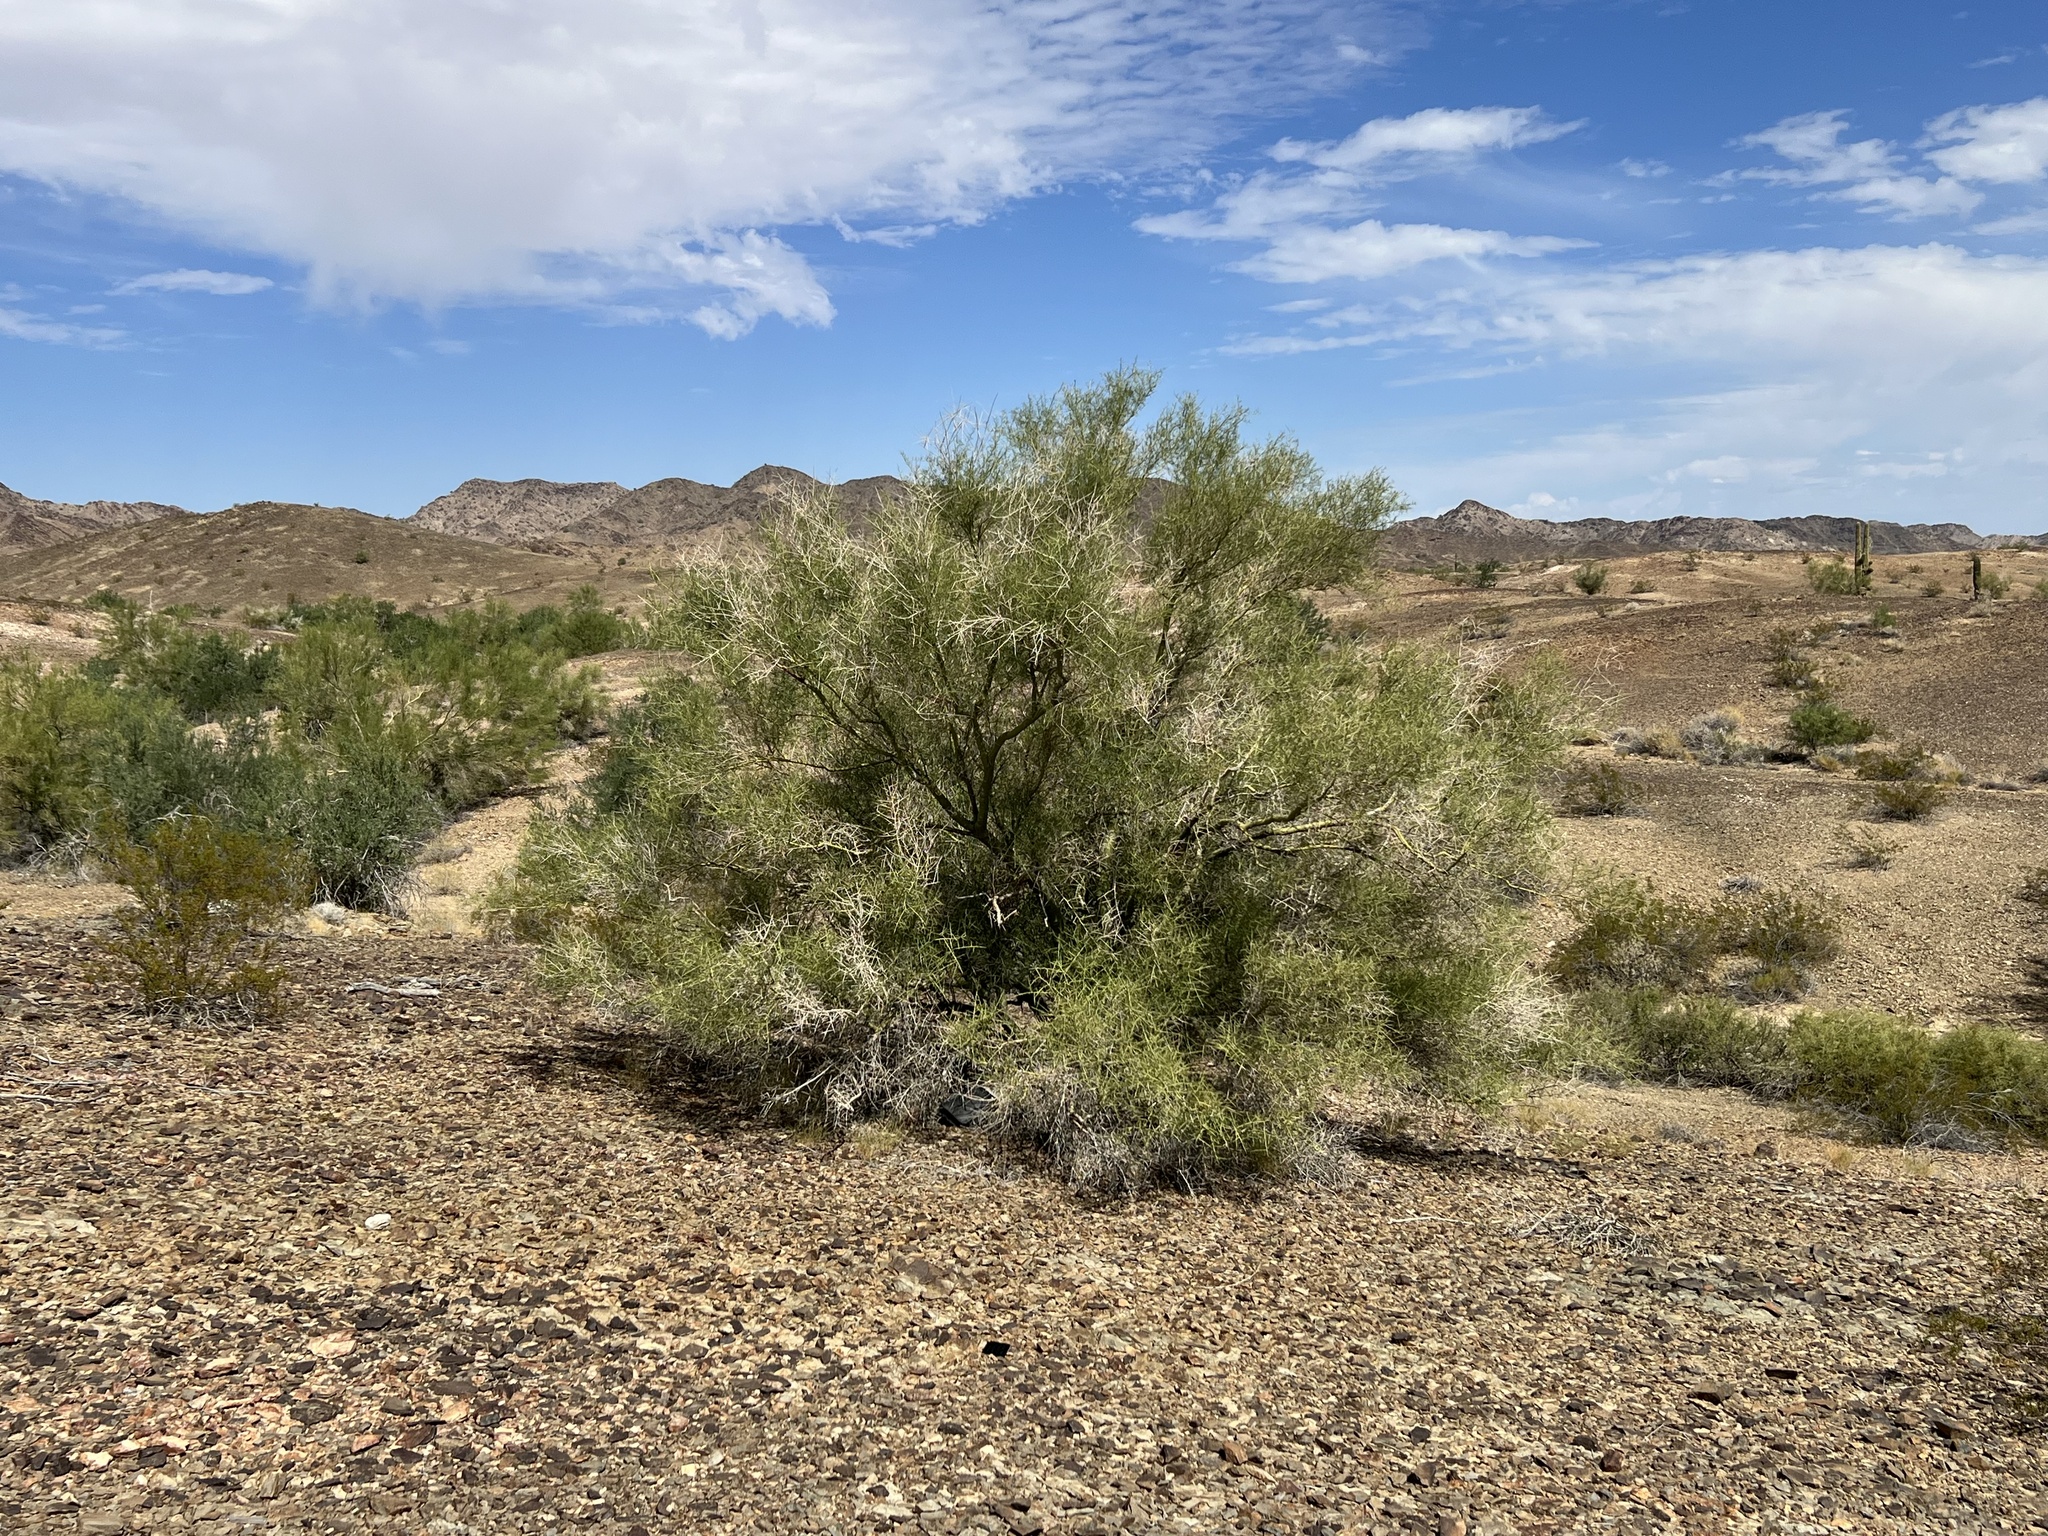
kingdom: Plantae
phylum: Tracheophyta
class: Magnoliopsida
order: Fabales
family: Fabaceae
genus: Parkinsonia
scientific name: Parkinsonia microphylla
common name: Yellow paloverde
